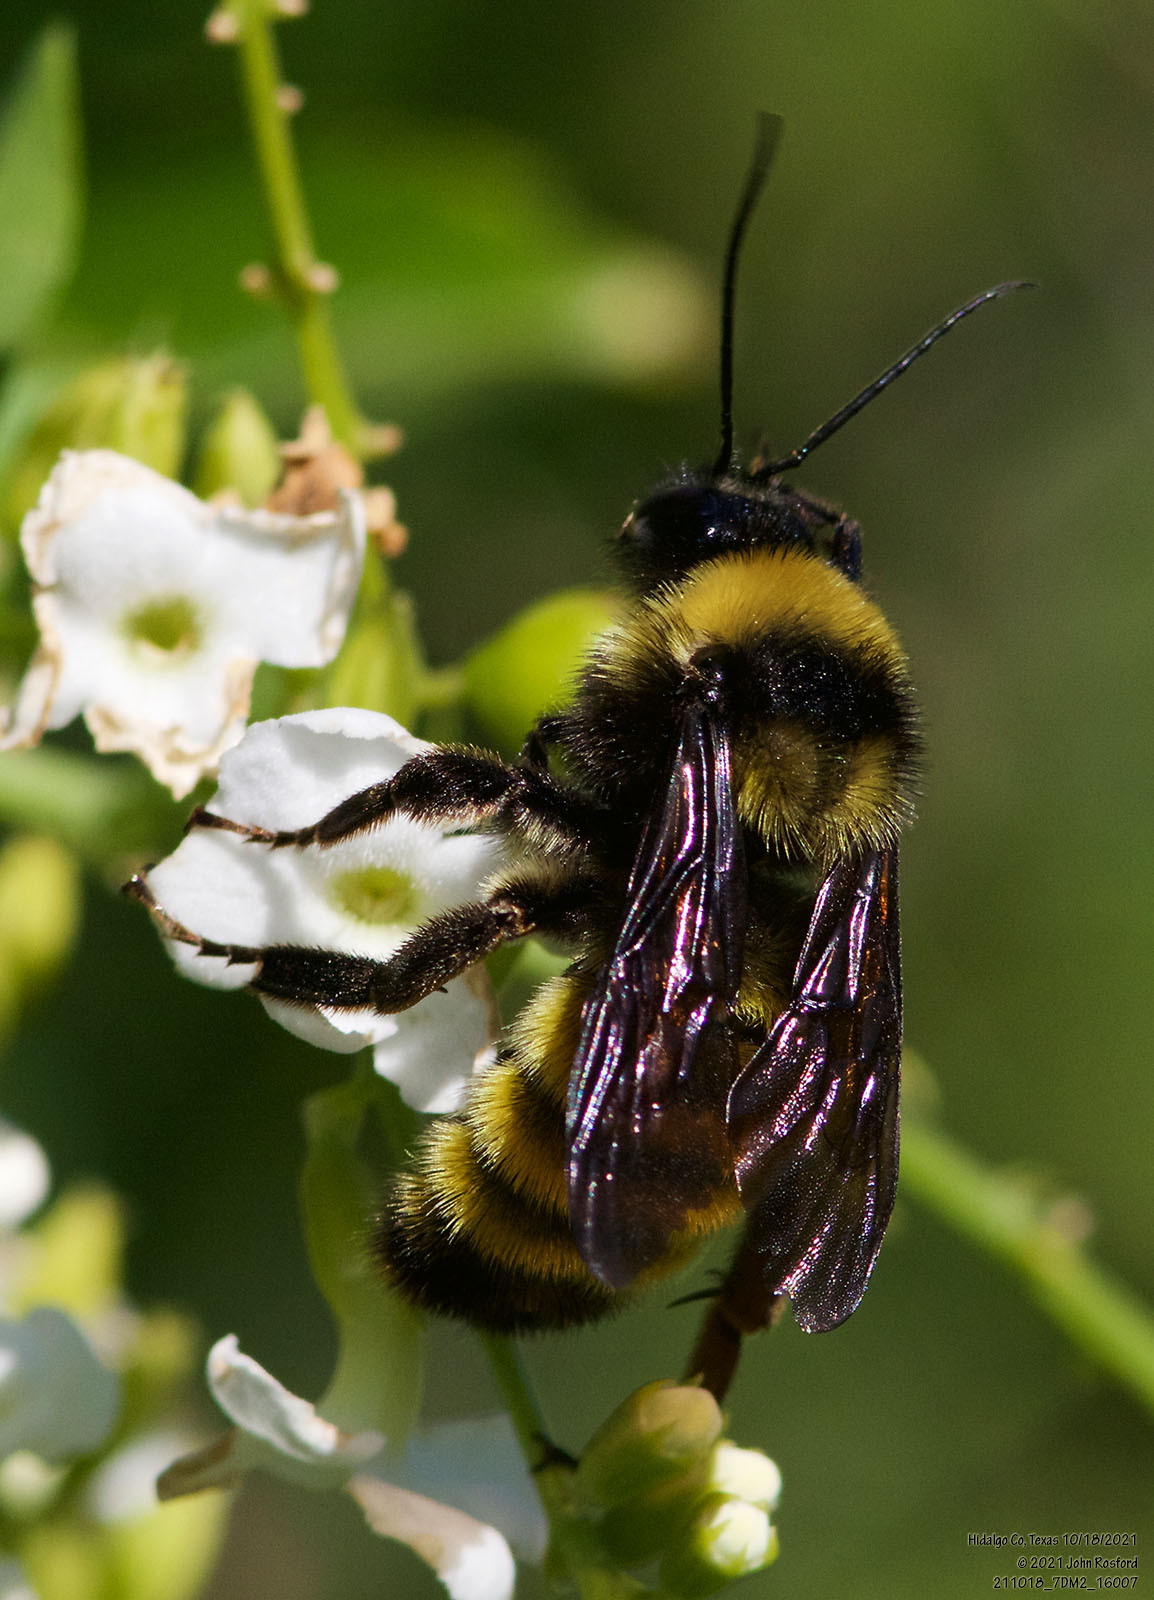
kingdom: Animalia
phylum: Arthropoda
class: Insecta
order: Hymenoptera
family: Apidae
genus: Bombus
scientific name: Bombus pensylvanicus
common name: Bumble bee
